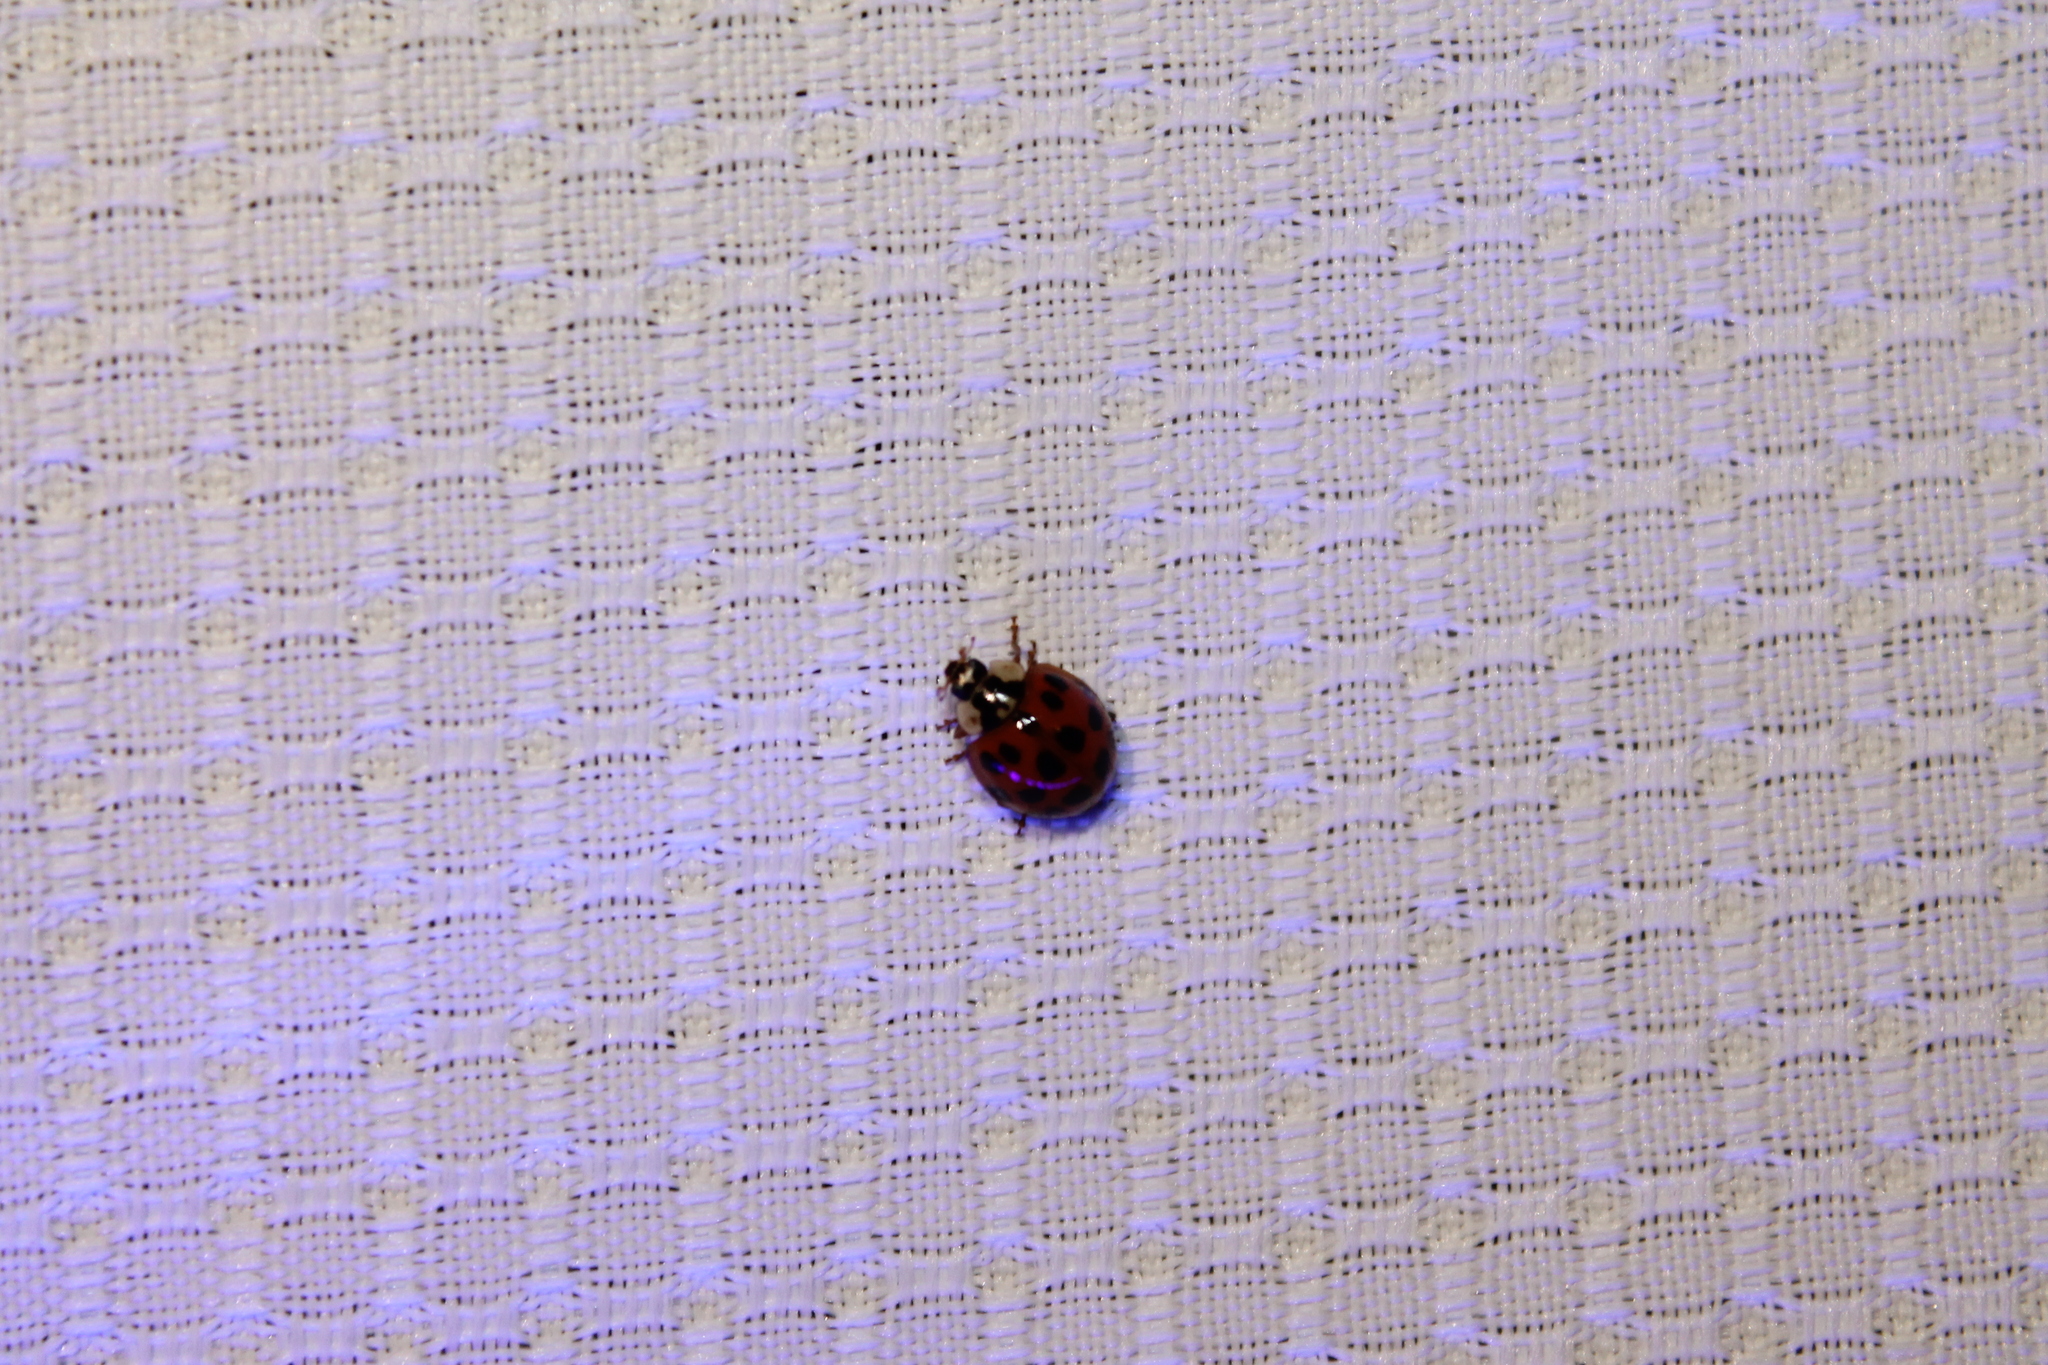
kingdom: Animalia
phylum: Arthropoda
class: Insecta
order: Coleoptera
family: Coccinellidae
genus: Harmonia
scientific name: Harmonia axyridis
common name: Harlequin ladybird
